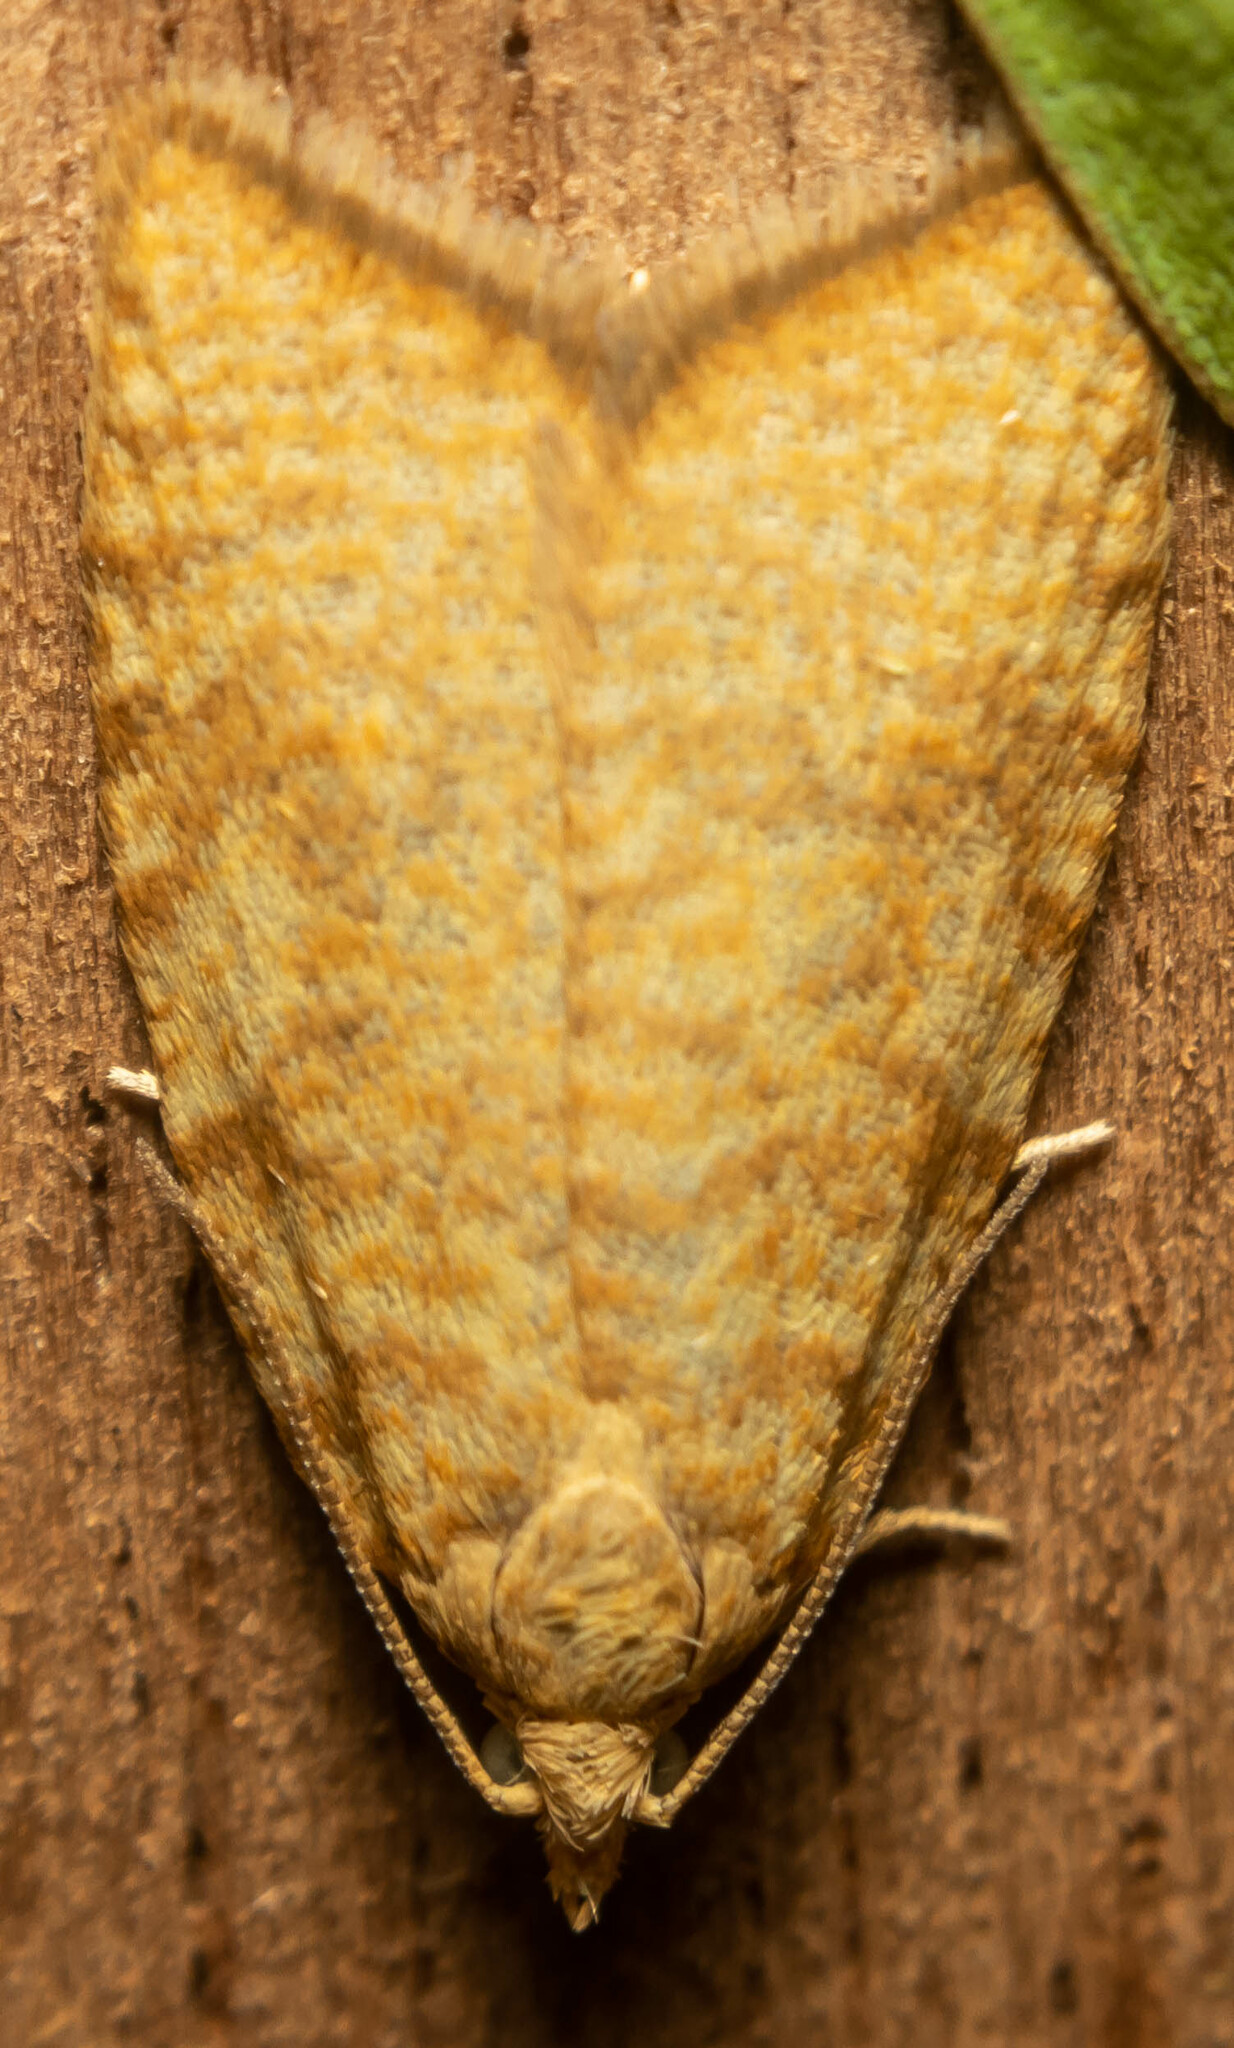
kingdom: Animalia
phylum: Arthropoda
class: Insecta
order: Lepidoptera
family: Tortricidae
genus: Aleimma
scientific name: Aleimma loeflingiana
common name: Yellow oak button
